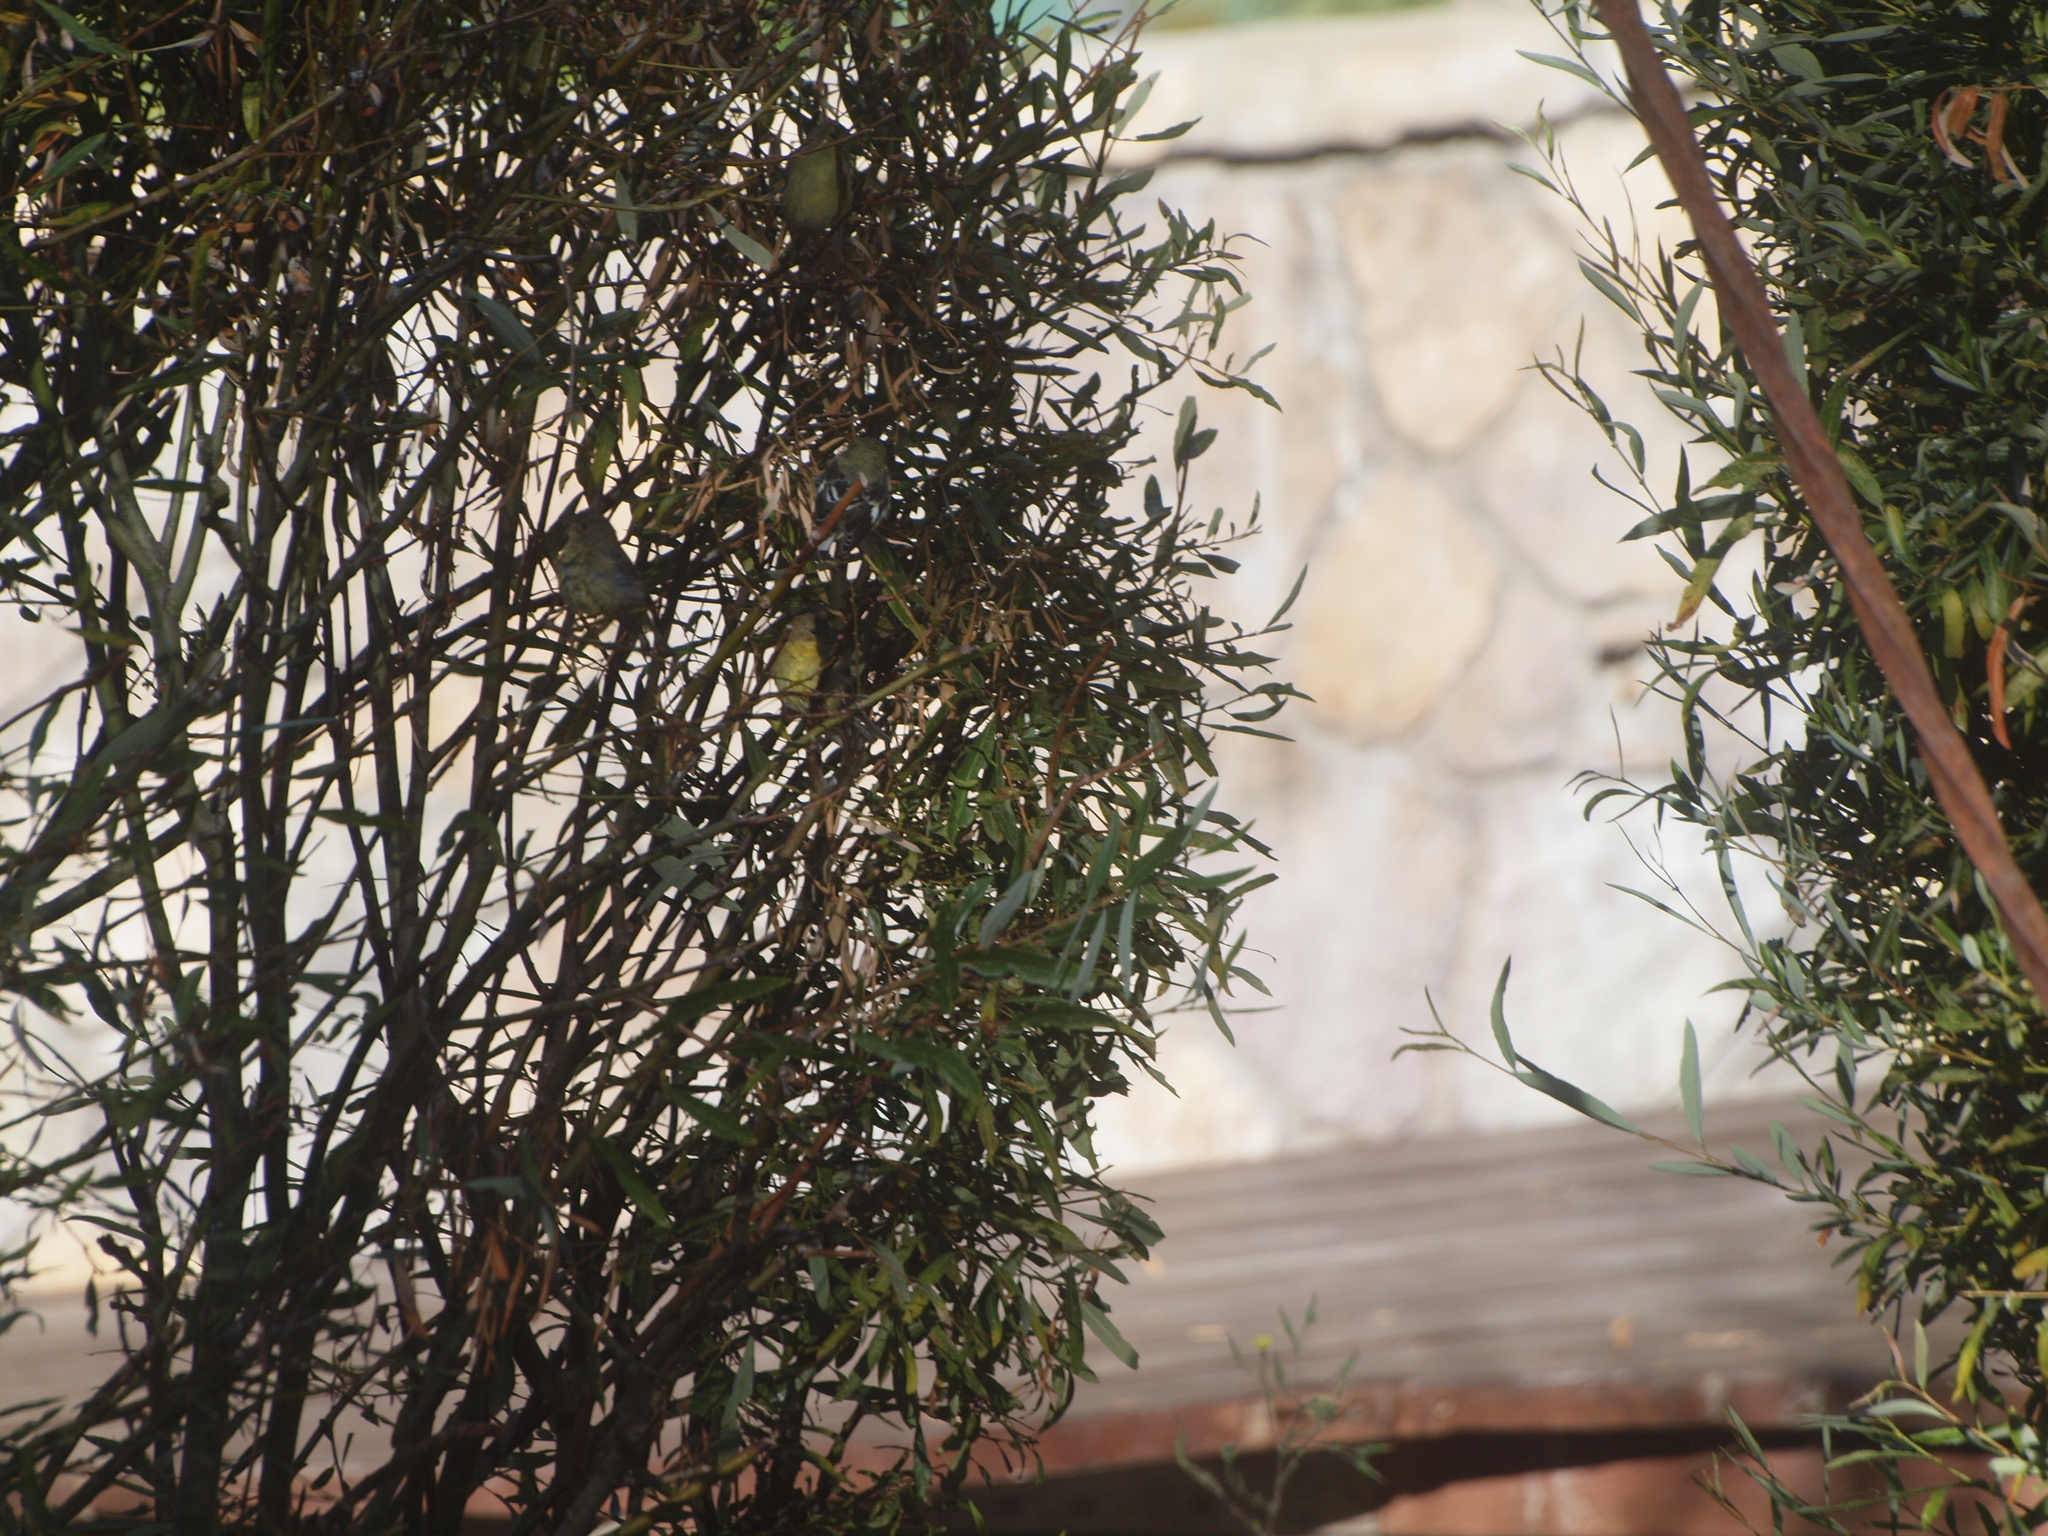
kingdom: Animalia
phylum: Chordata
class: Aves
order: Passeriformes
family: Fringillidae
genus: Spinus
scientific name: Spinus psaltria
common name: Lesser goldfinch
